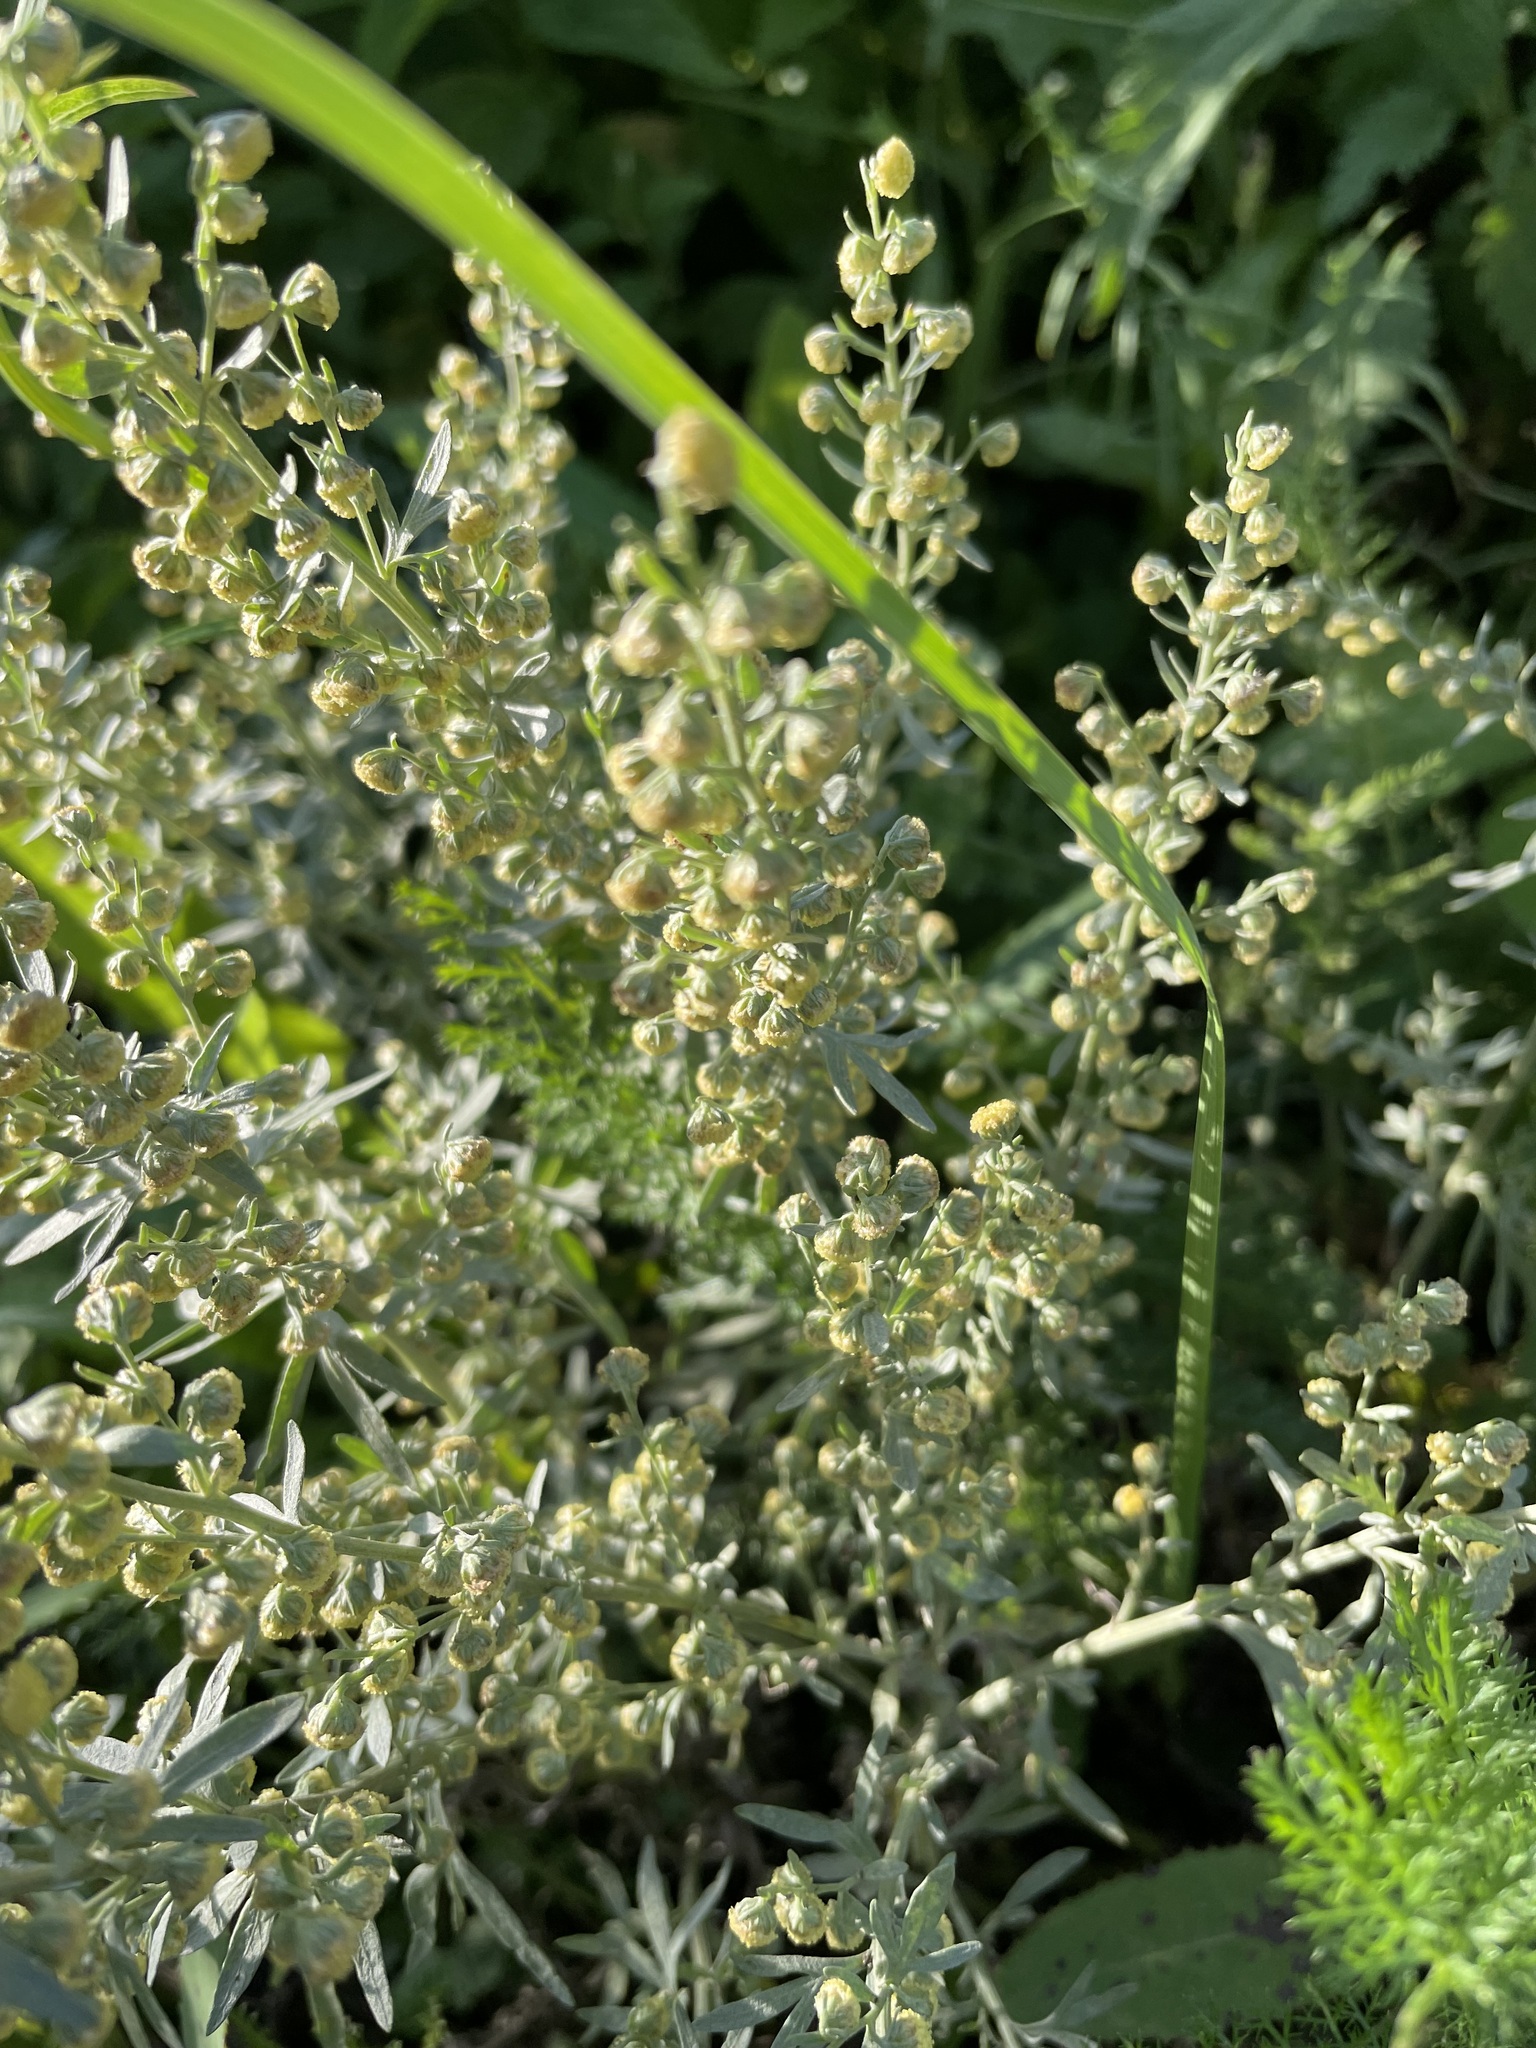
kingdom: Plantae
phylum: Tracheophyta
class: Magnoliopsida
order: Asterales
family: Asteraceae
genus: Artemisia
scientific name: Artemisia absinthium
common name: Wormwood
